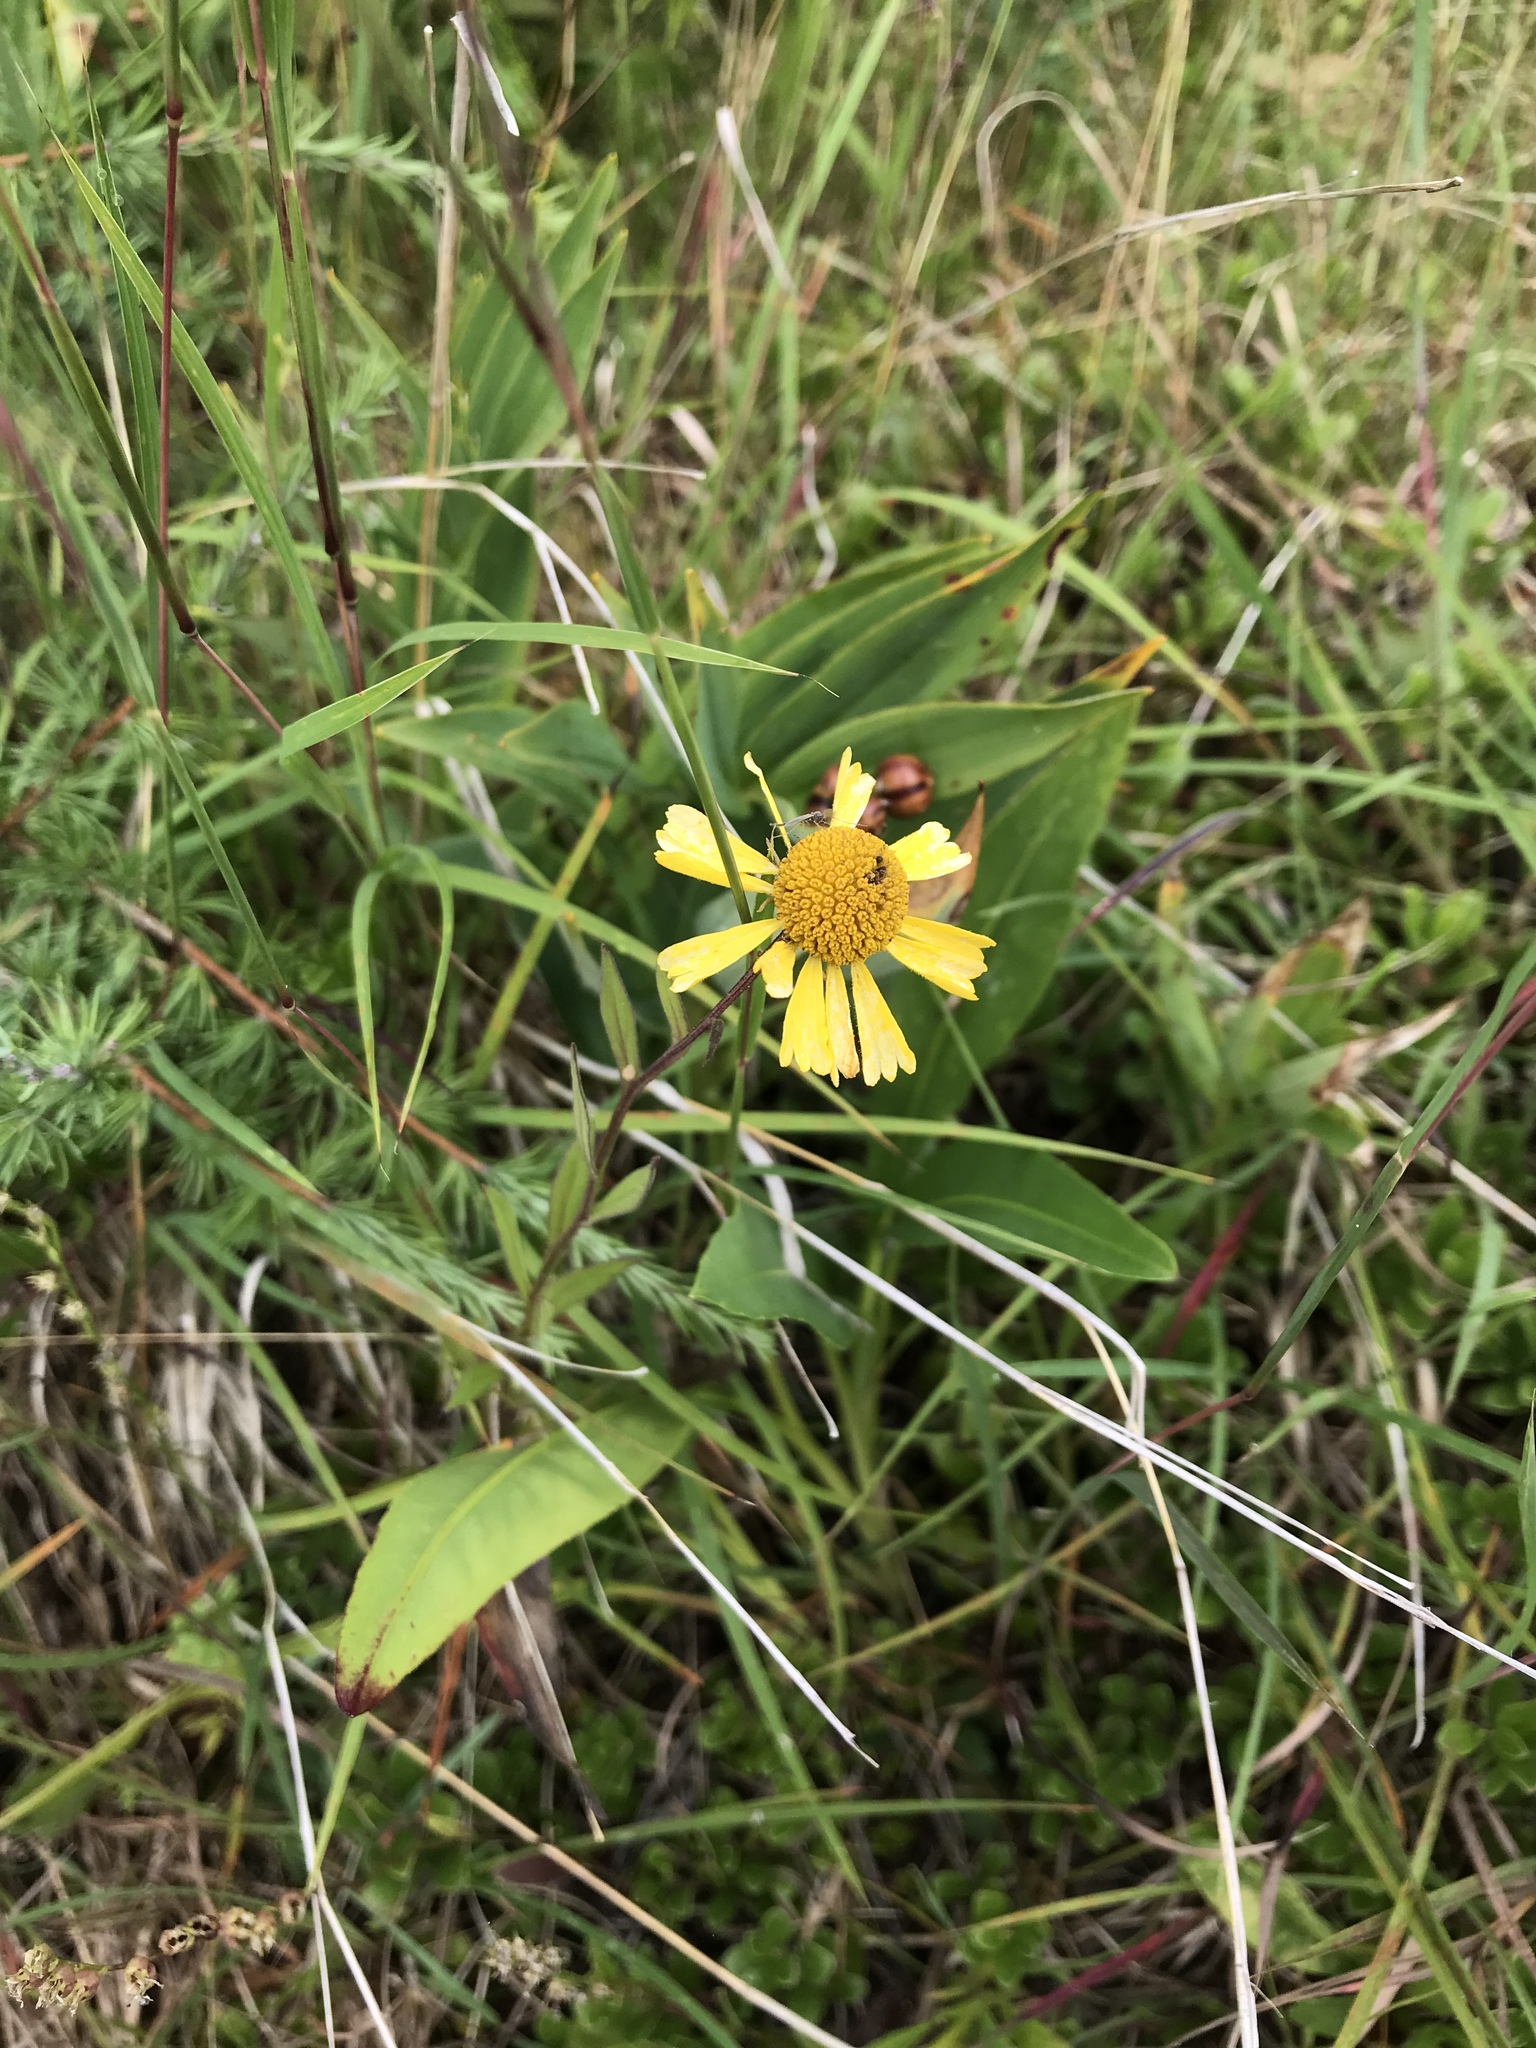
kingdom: Plantae
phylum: Tracheophyta
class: Magnoliopsida
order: Asterales
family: Asteraceae
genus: Helenium
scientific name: Helenium autumnale
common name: Sneezeweed
